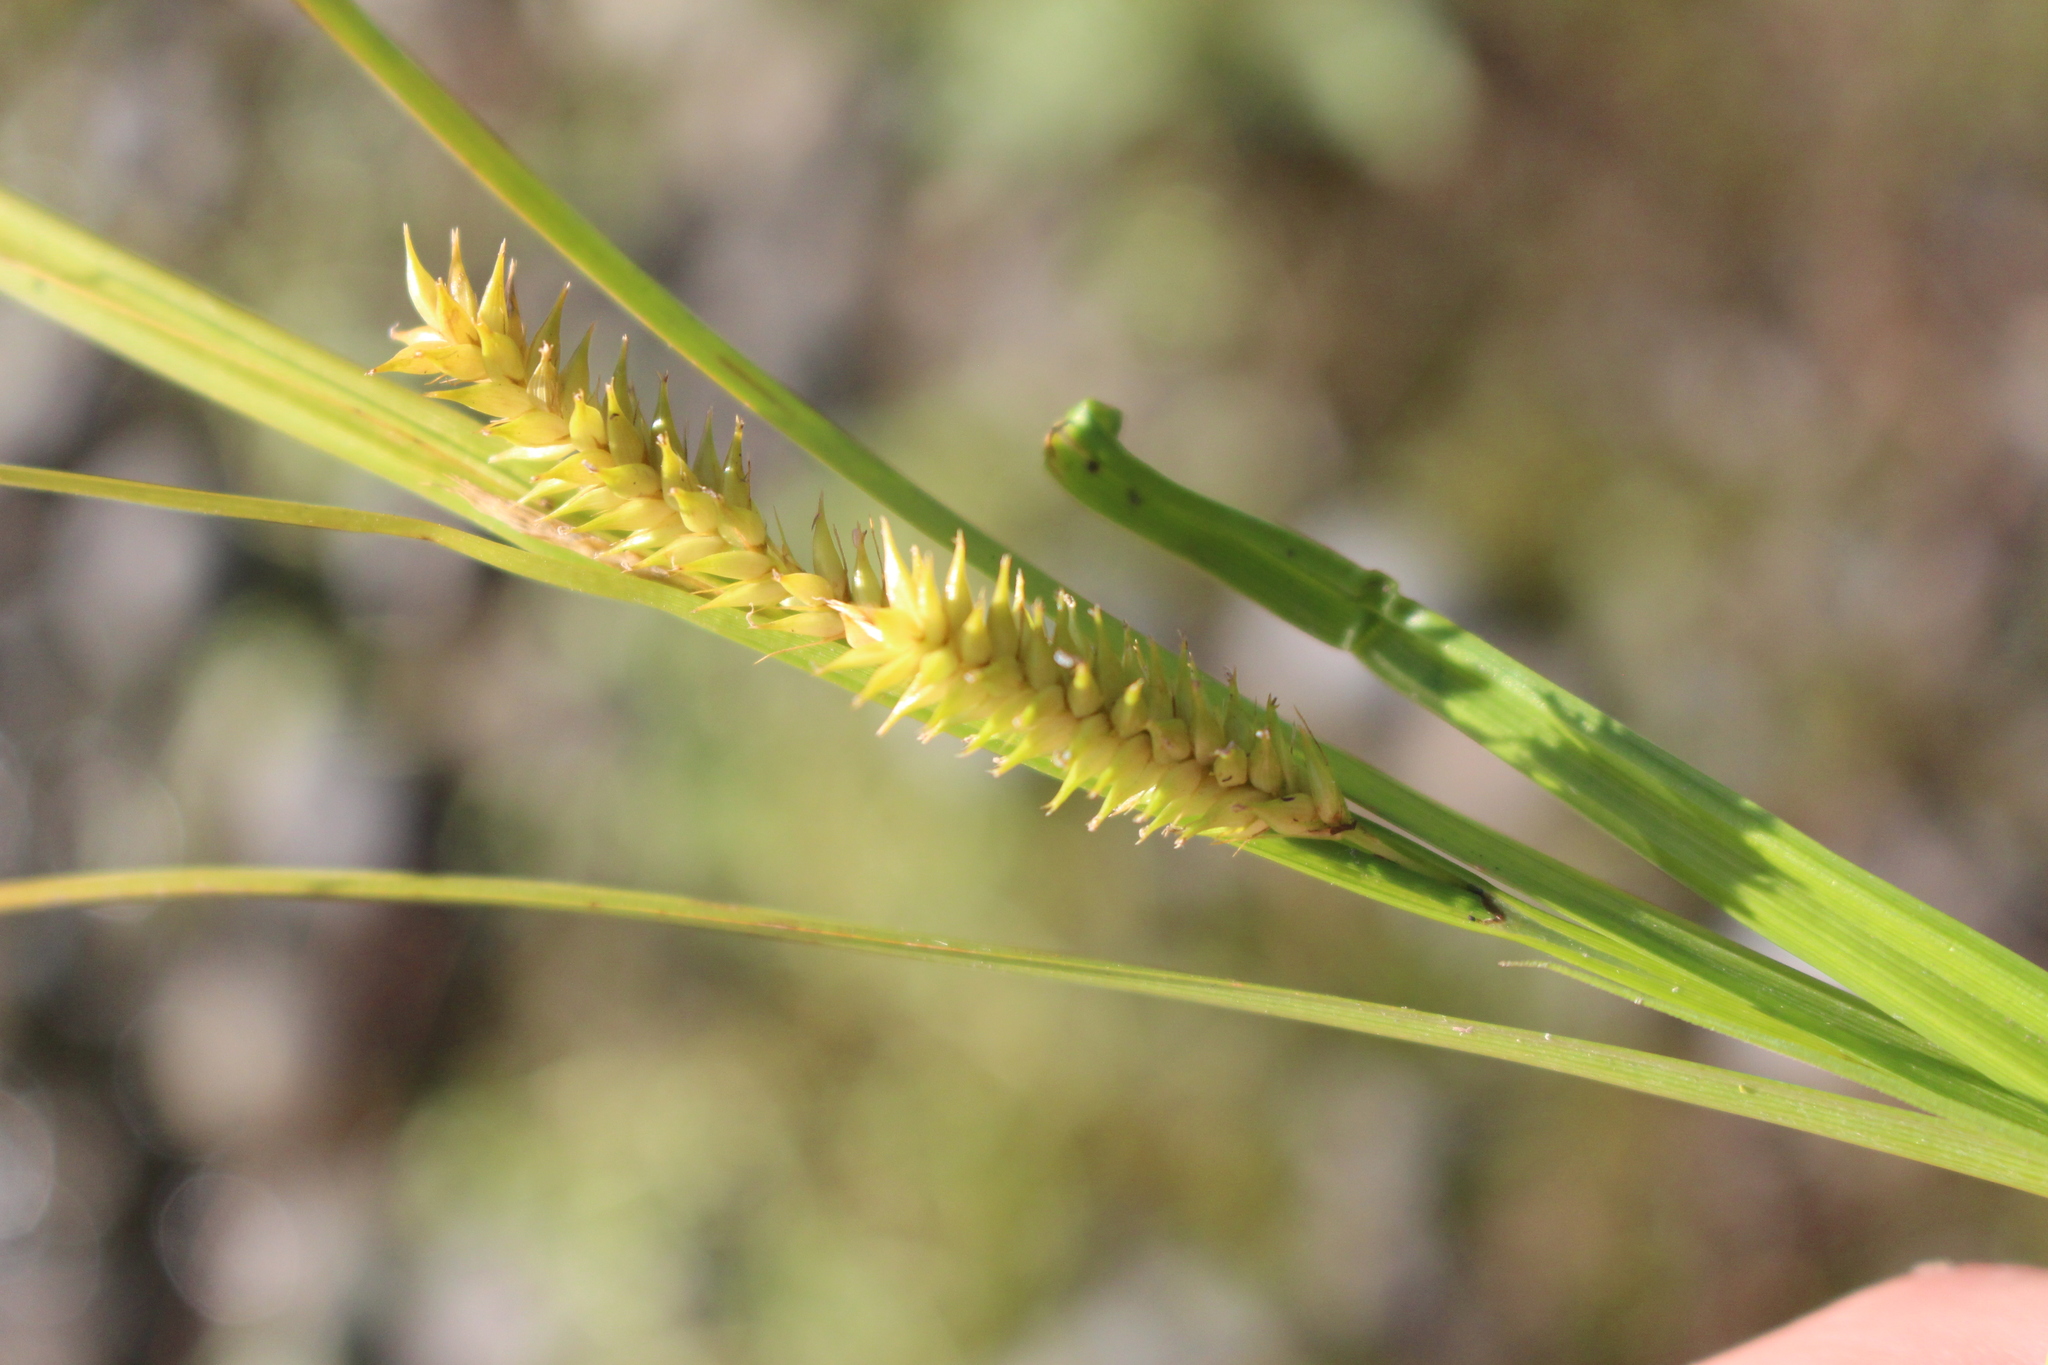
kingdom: Plantae
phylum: Tracheophyta
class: Liliopsida
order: Poales
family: Cyperaceae
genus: Carex
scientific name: Carex maorica
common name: Maori sedge
